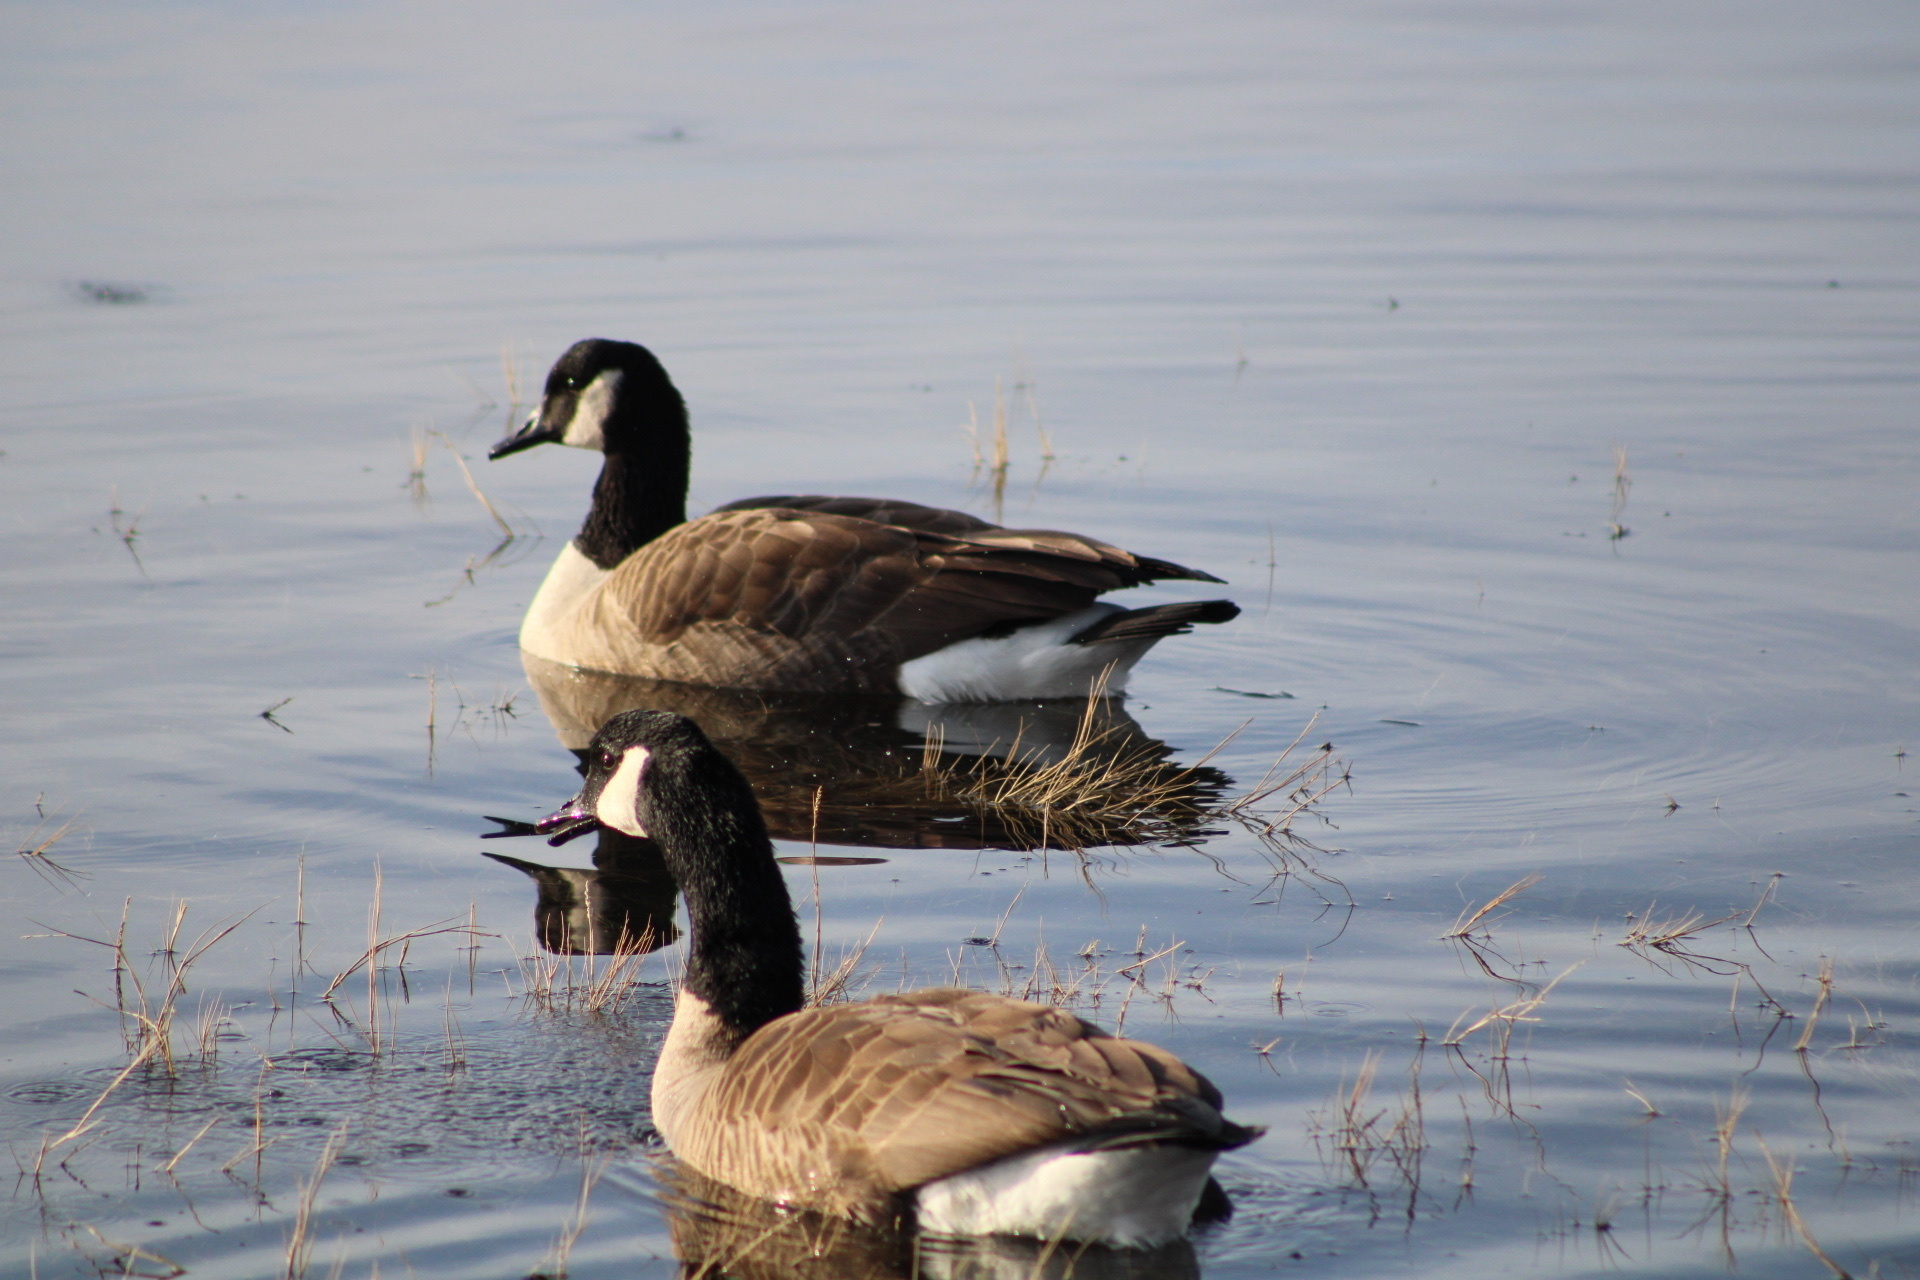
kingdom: Animalia
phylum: Chordata
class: Aves
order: Anseriformes
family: Anatidae
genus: Branta
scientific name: Branta canadensis
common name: Canada goose
